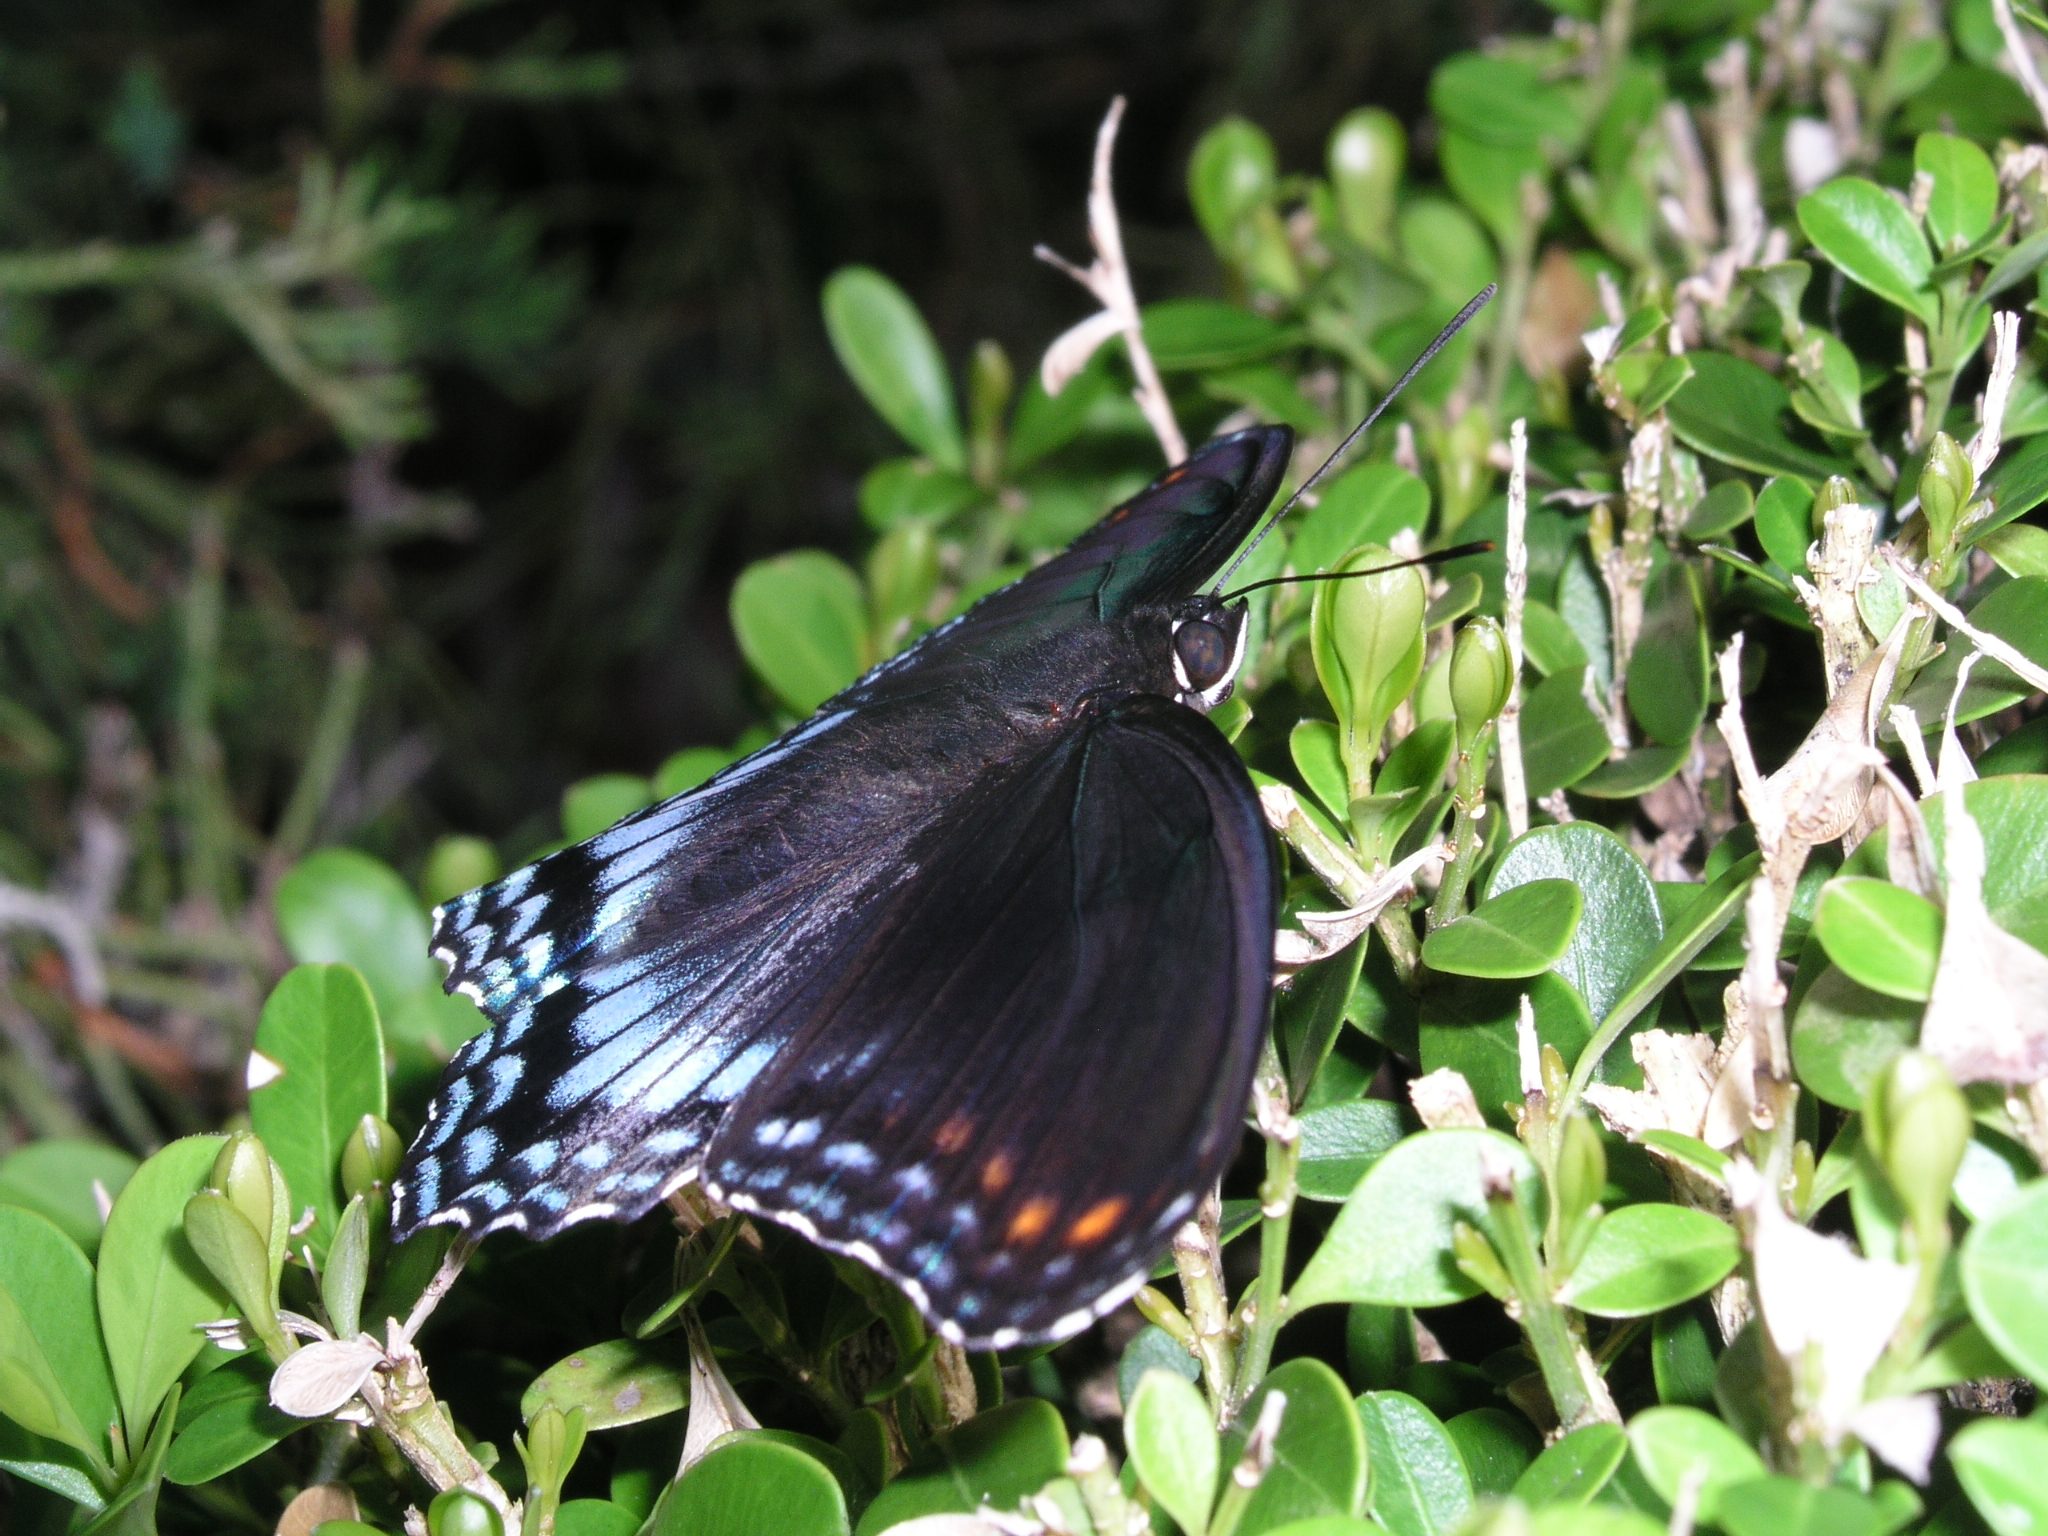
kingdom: Animalia
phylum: Arthropoda
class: Insecta
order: Lepidoptera
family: Nymphalidae
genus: Limenitis
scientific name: Limenitis astyanax
